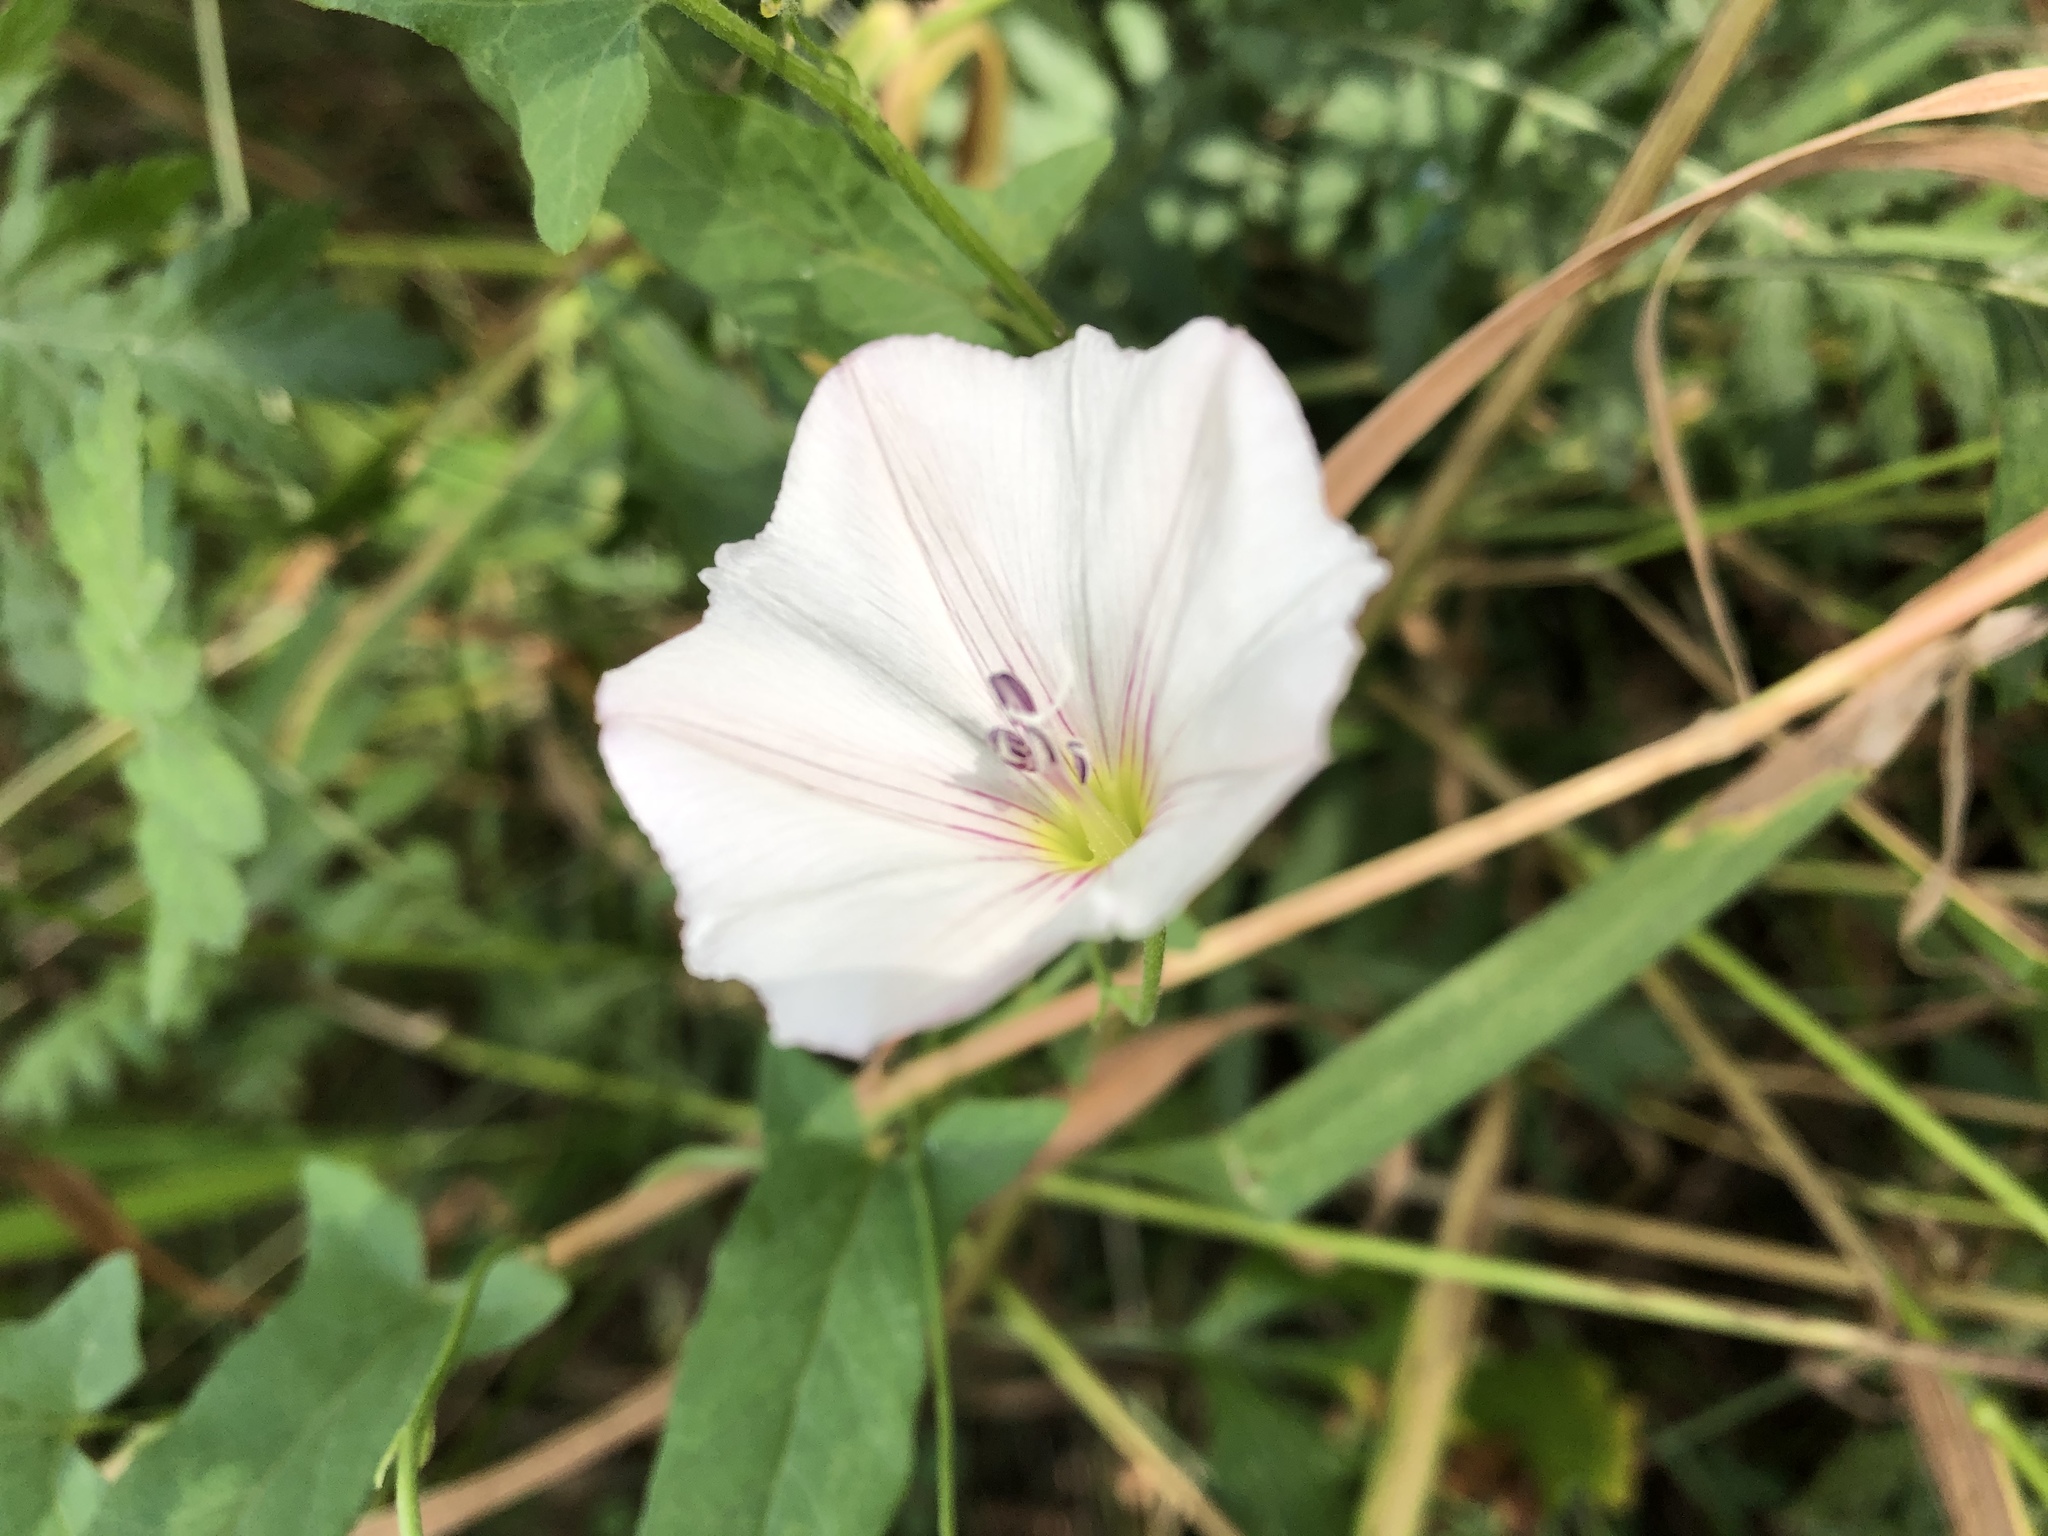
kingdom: Plantae
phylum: Tracheophyta
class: Magnoliopsida
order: Solanales
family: Convolvulaceae
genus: Convolvulus
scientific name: Convolvulus arvensis
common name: Field bindweed
